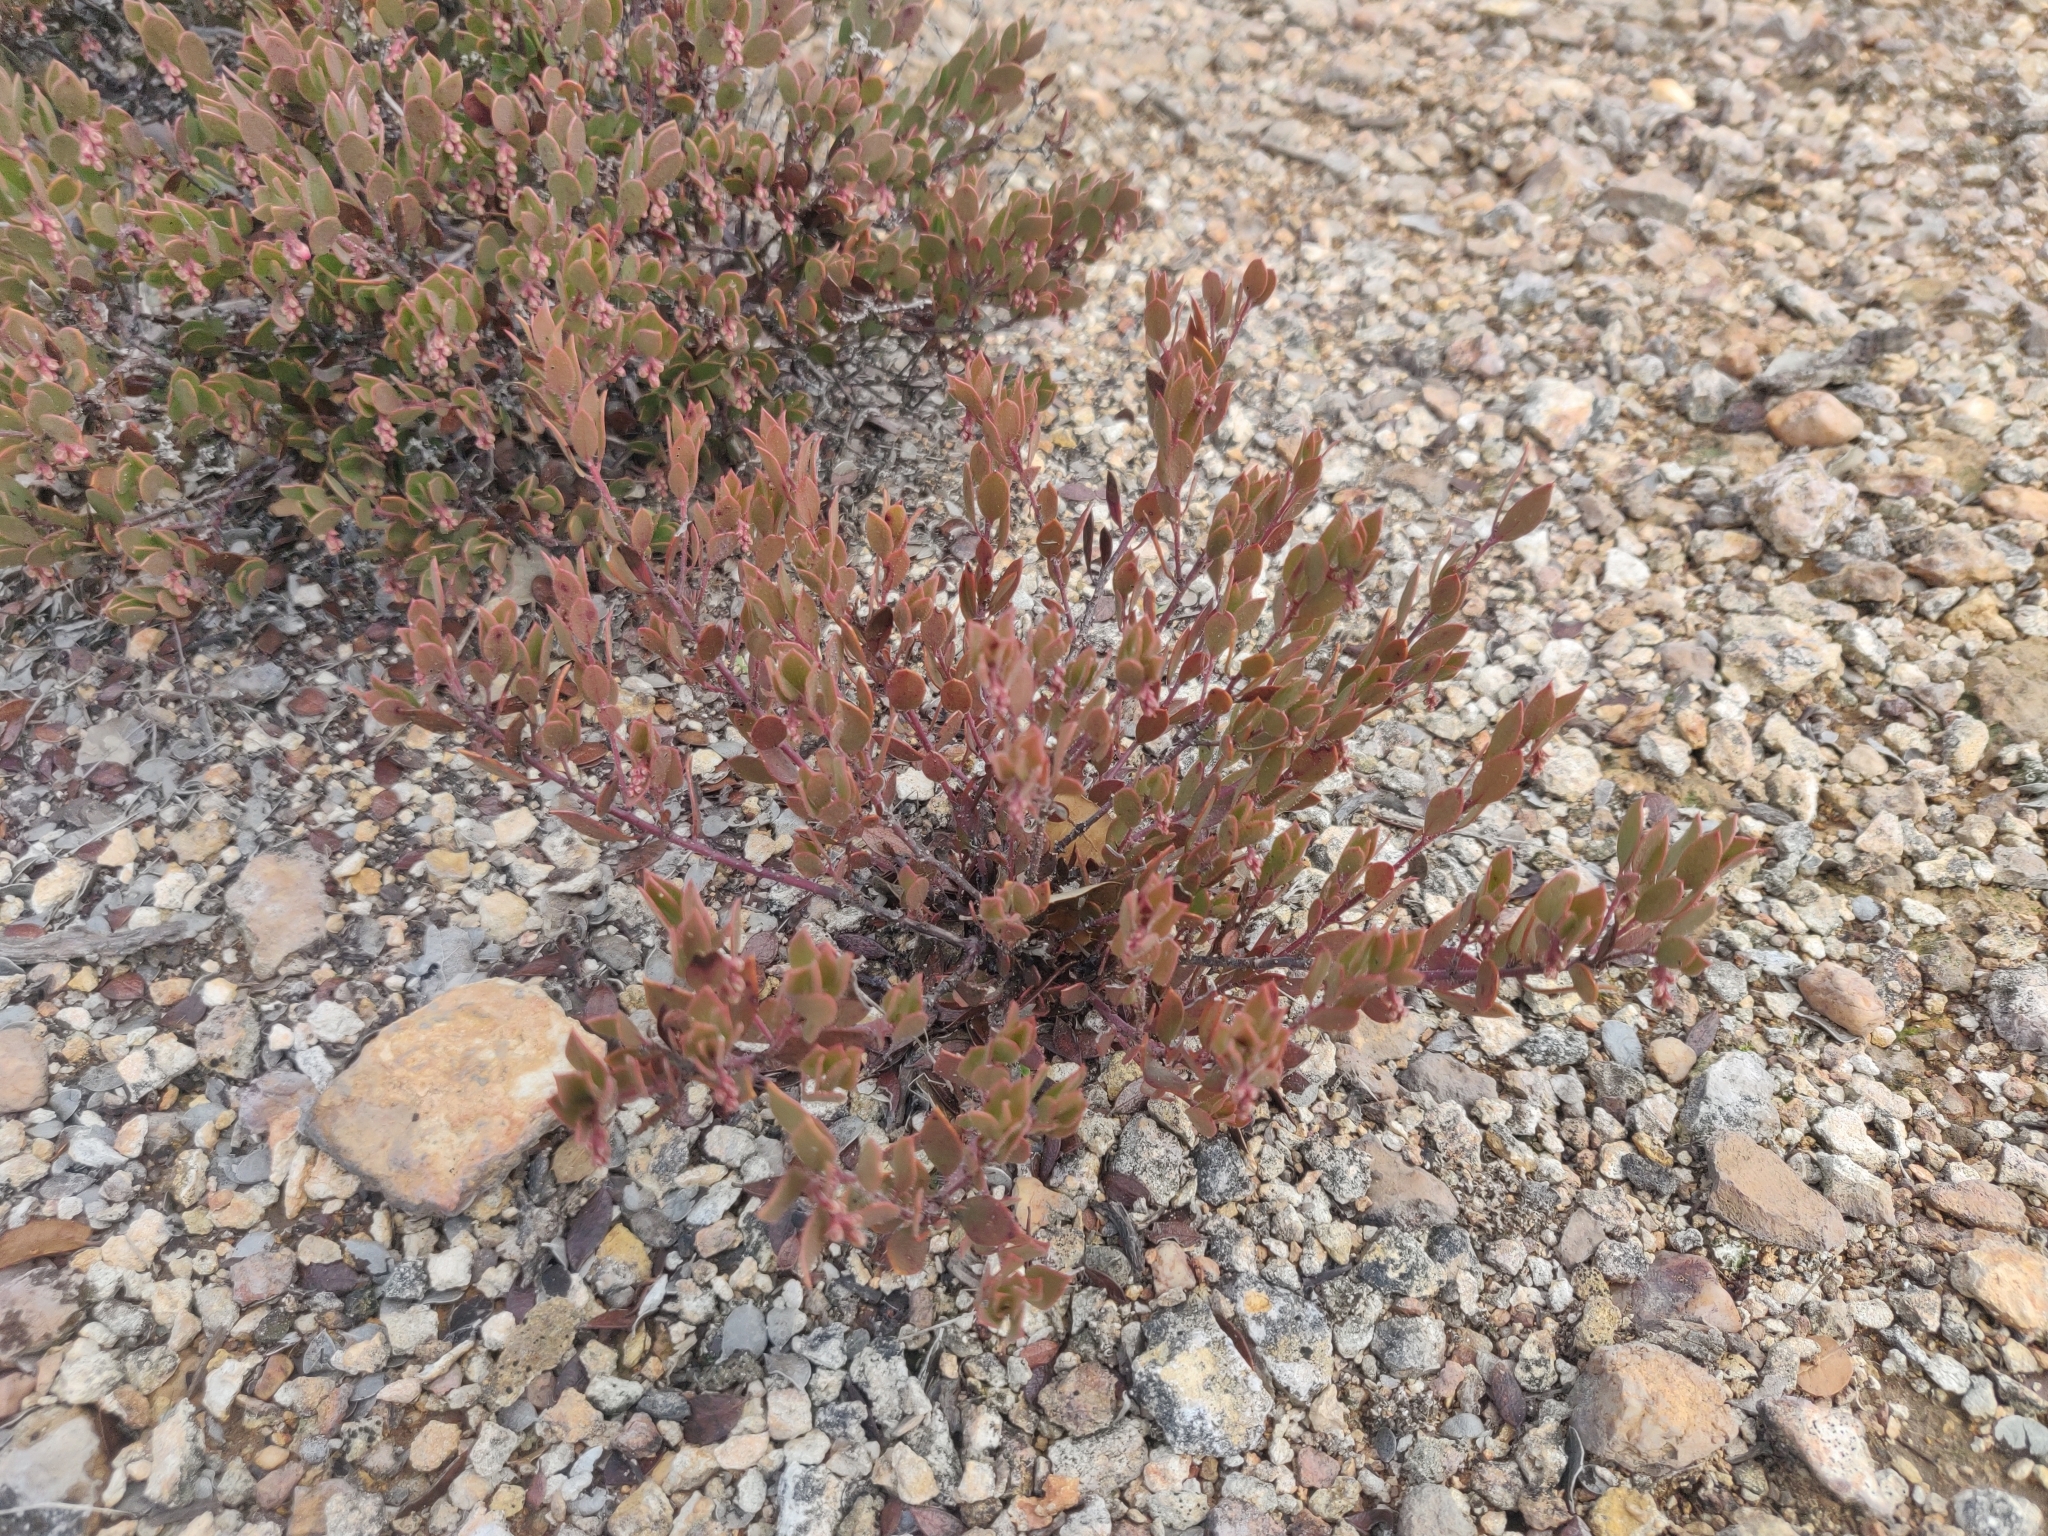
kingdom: Plantae
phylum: Tracheophyta
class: Magnoliopsida
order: Ericales
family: Ericaceae
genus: Arctostaphylos
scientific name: Arctostaphylos myrtifolia
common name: Ione manzanita
